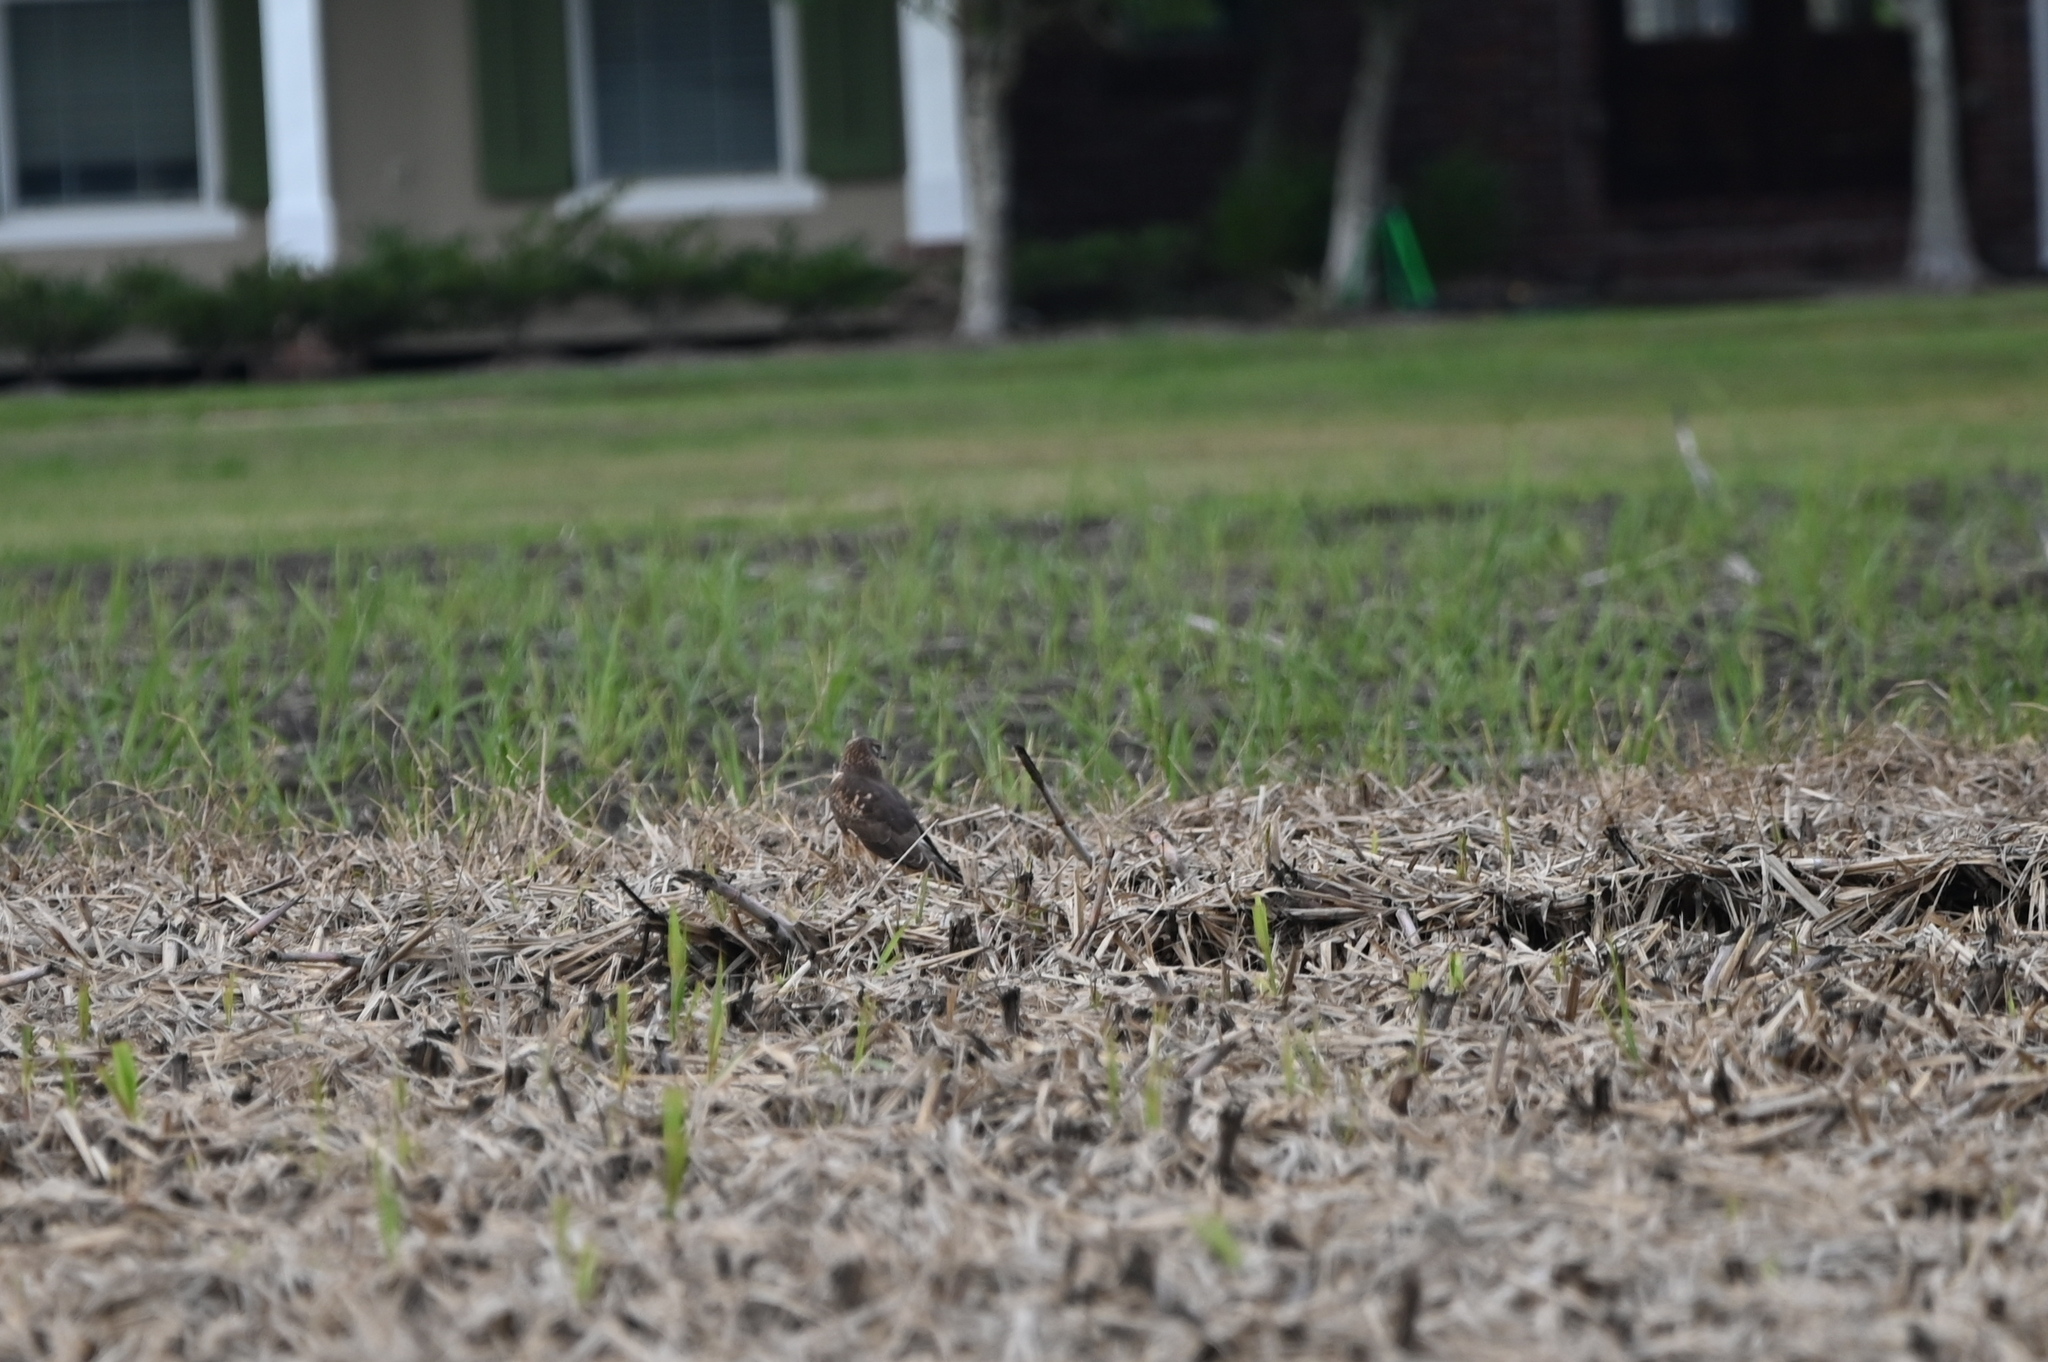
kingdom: Animalia
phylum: Chordata
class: Aves
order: Accipitriformes
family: Accipitridae
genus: Circus
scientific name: Circus cyaneus
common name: Hen harrier
